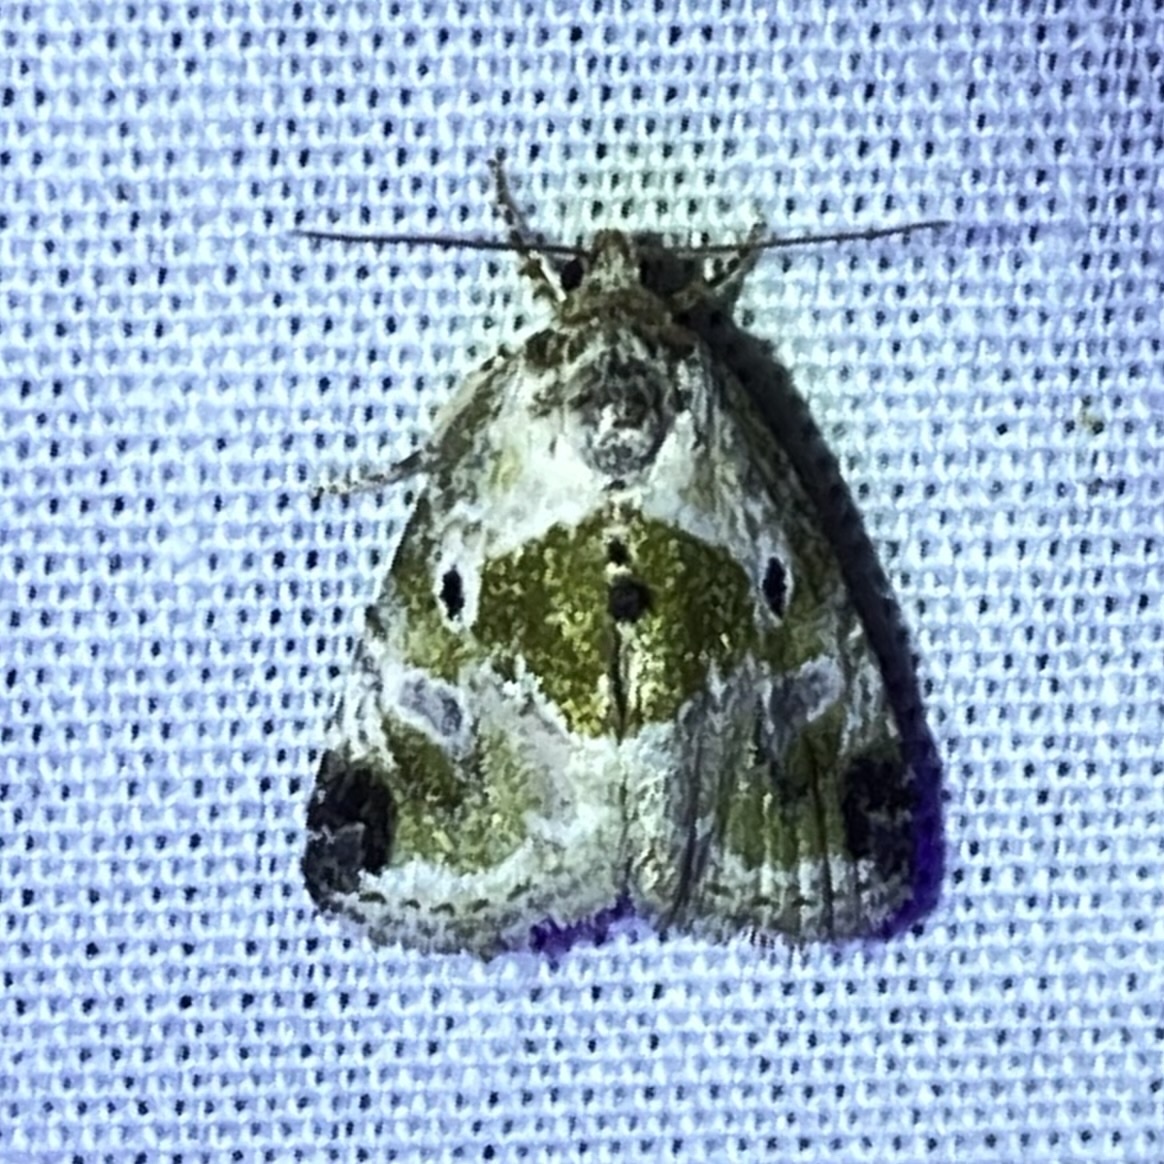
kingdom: Animalia
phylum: Arthropoda
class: Insecta
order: Lepidoptera
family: Noctuidae
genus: Maliattha
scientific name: Maliattha synochitis
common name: Black-dotted glyph
